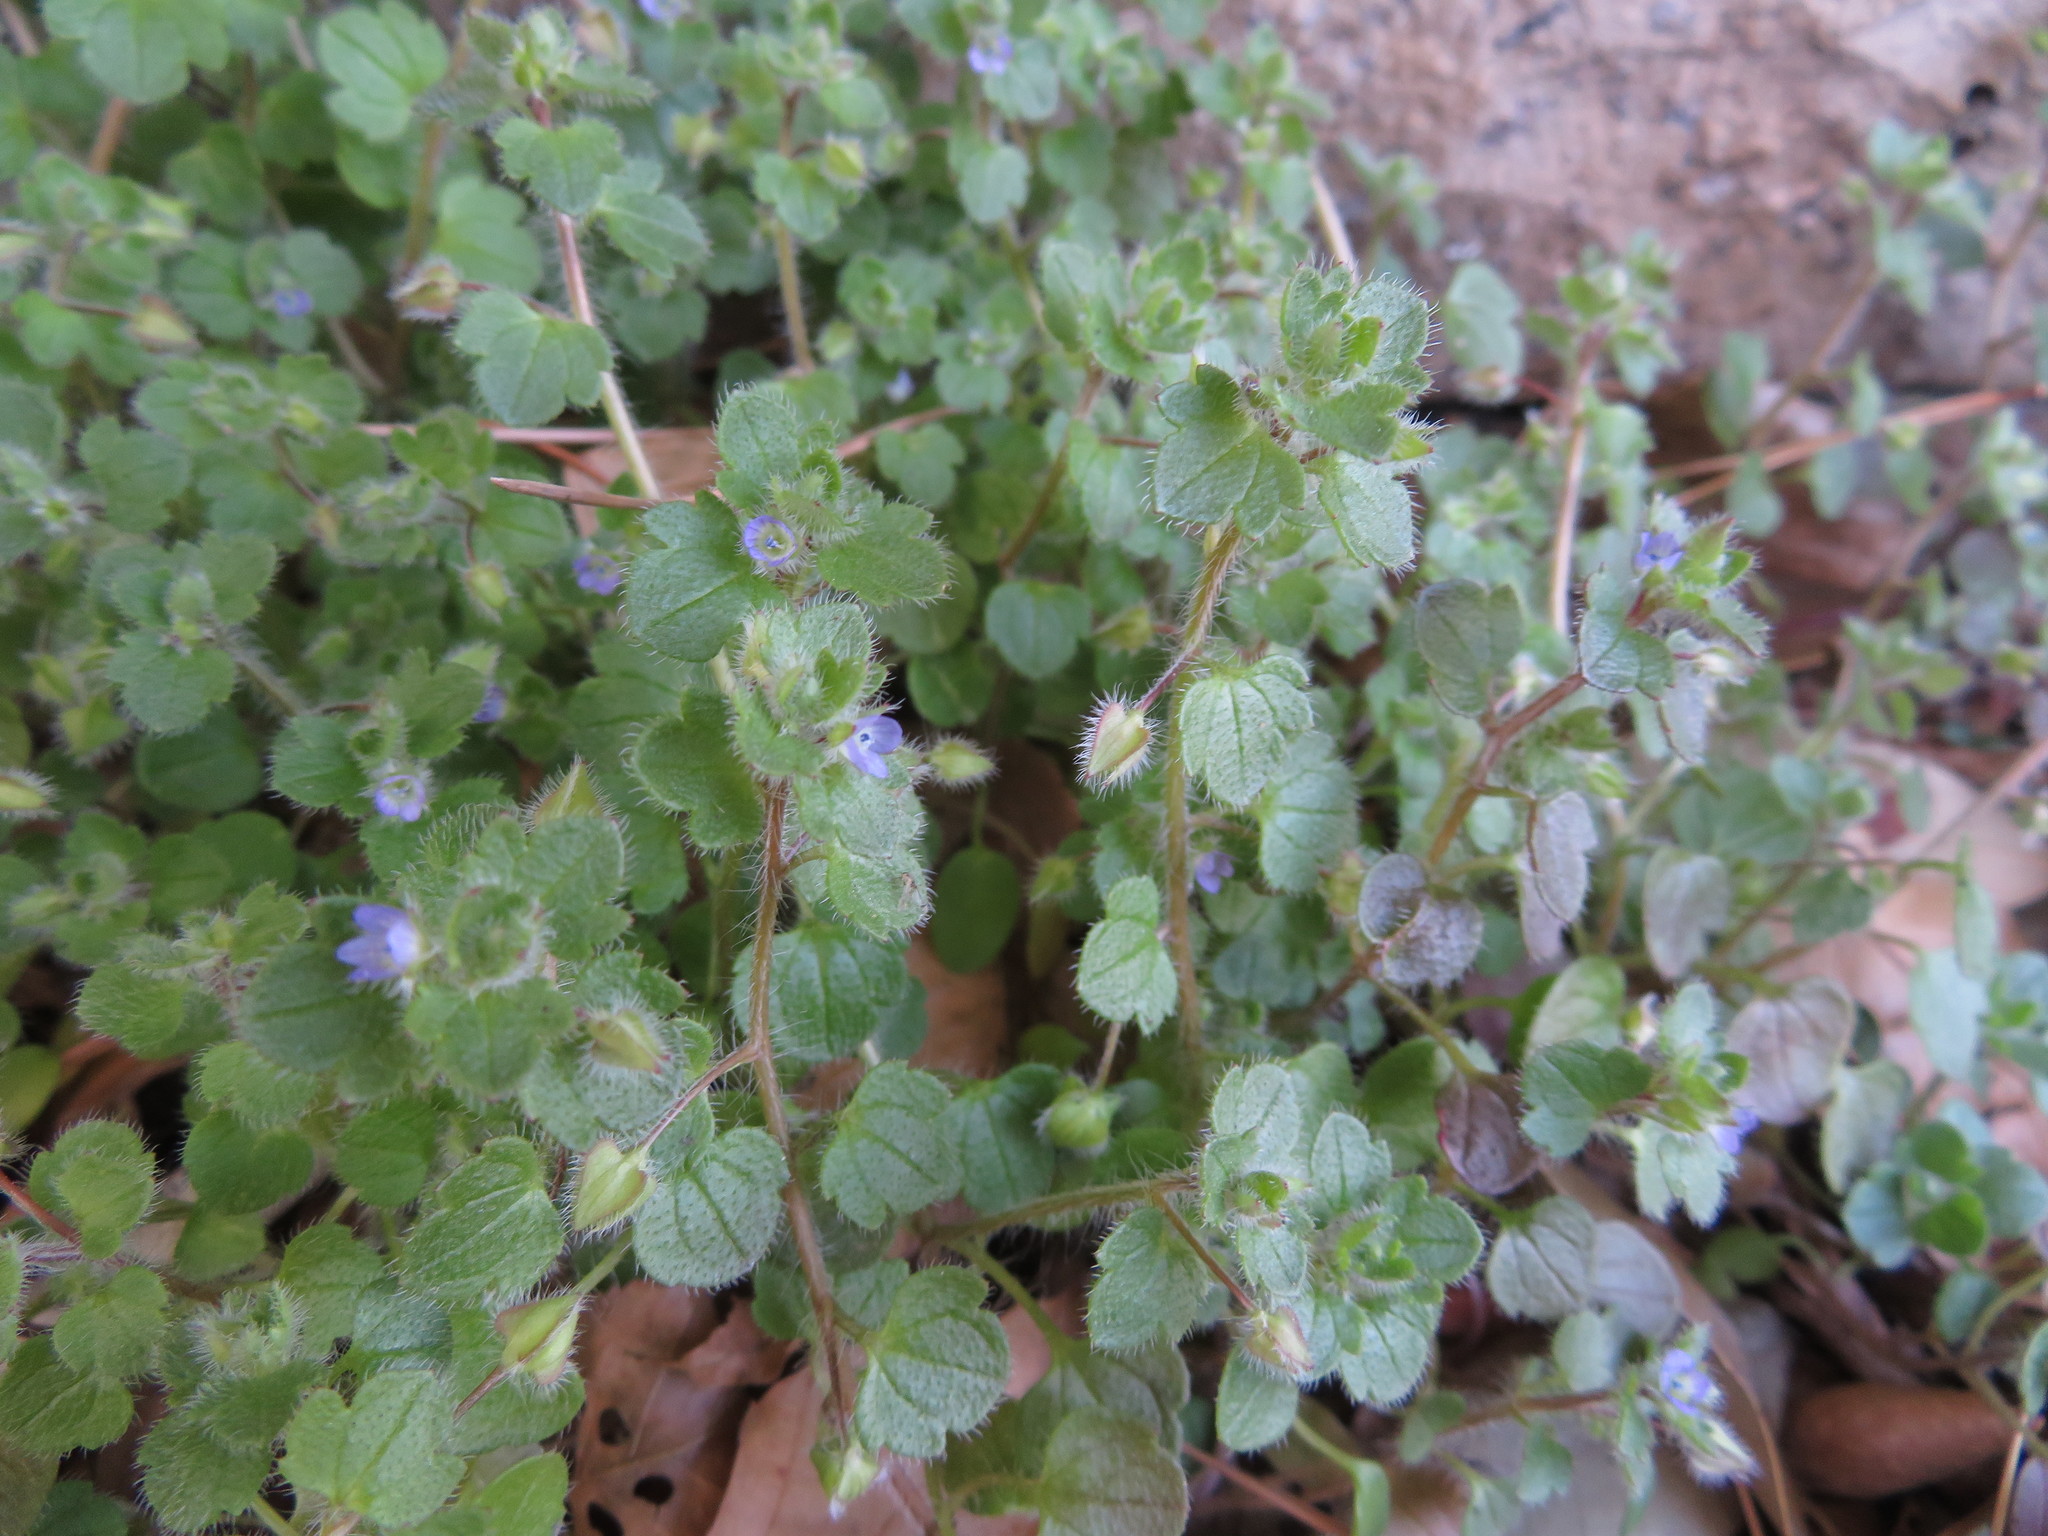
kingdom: Plantae
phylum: Tracheophyta
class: Magnoliopsida
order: Lamiales
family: Plantaginaceae
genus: Veronica
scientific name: Veronica hederifolia
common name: Ivy-leaved speedwell
